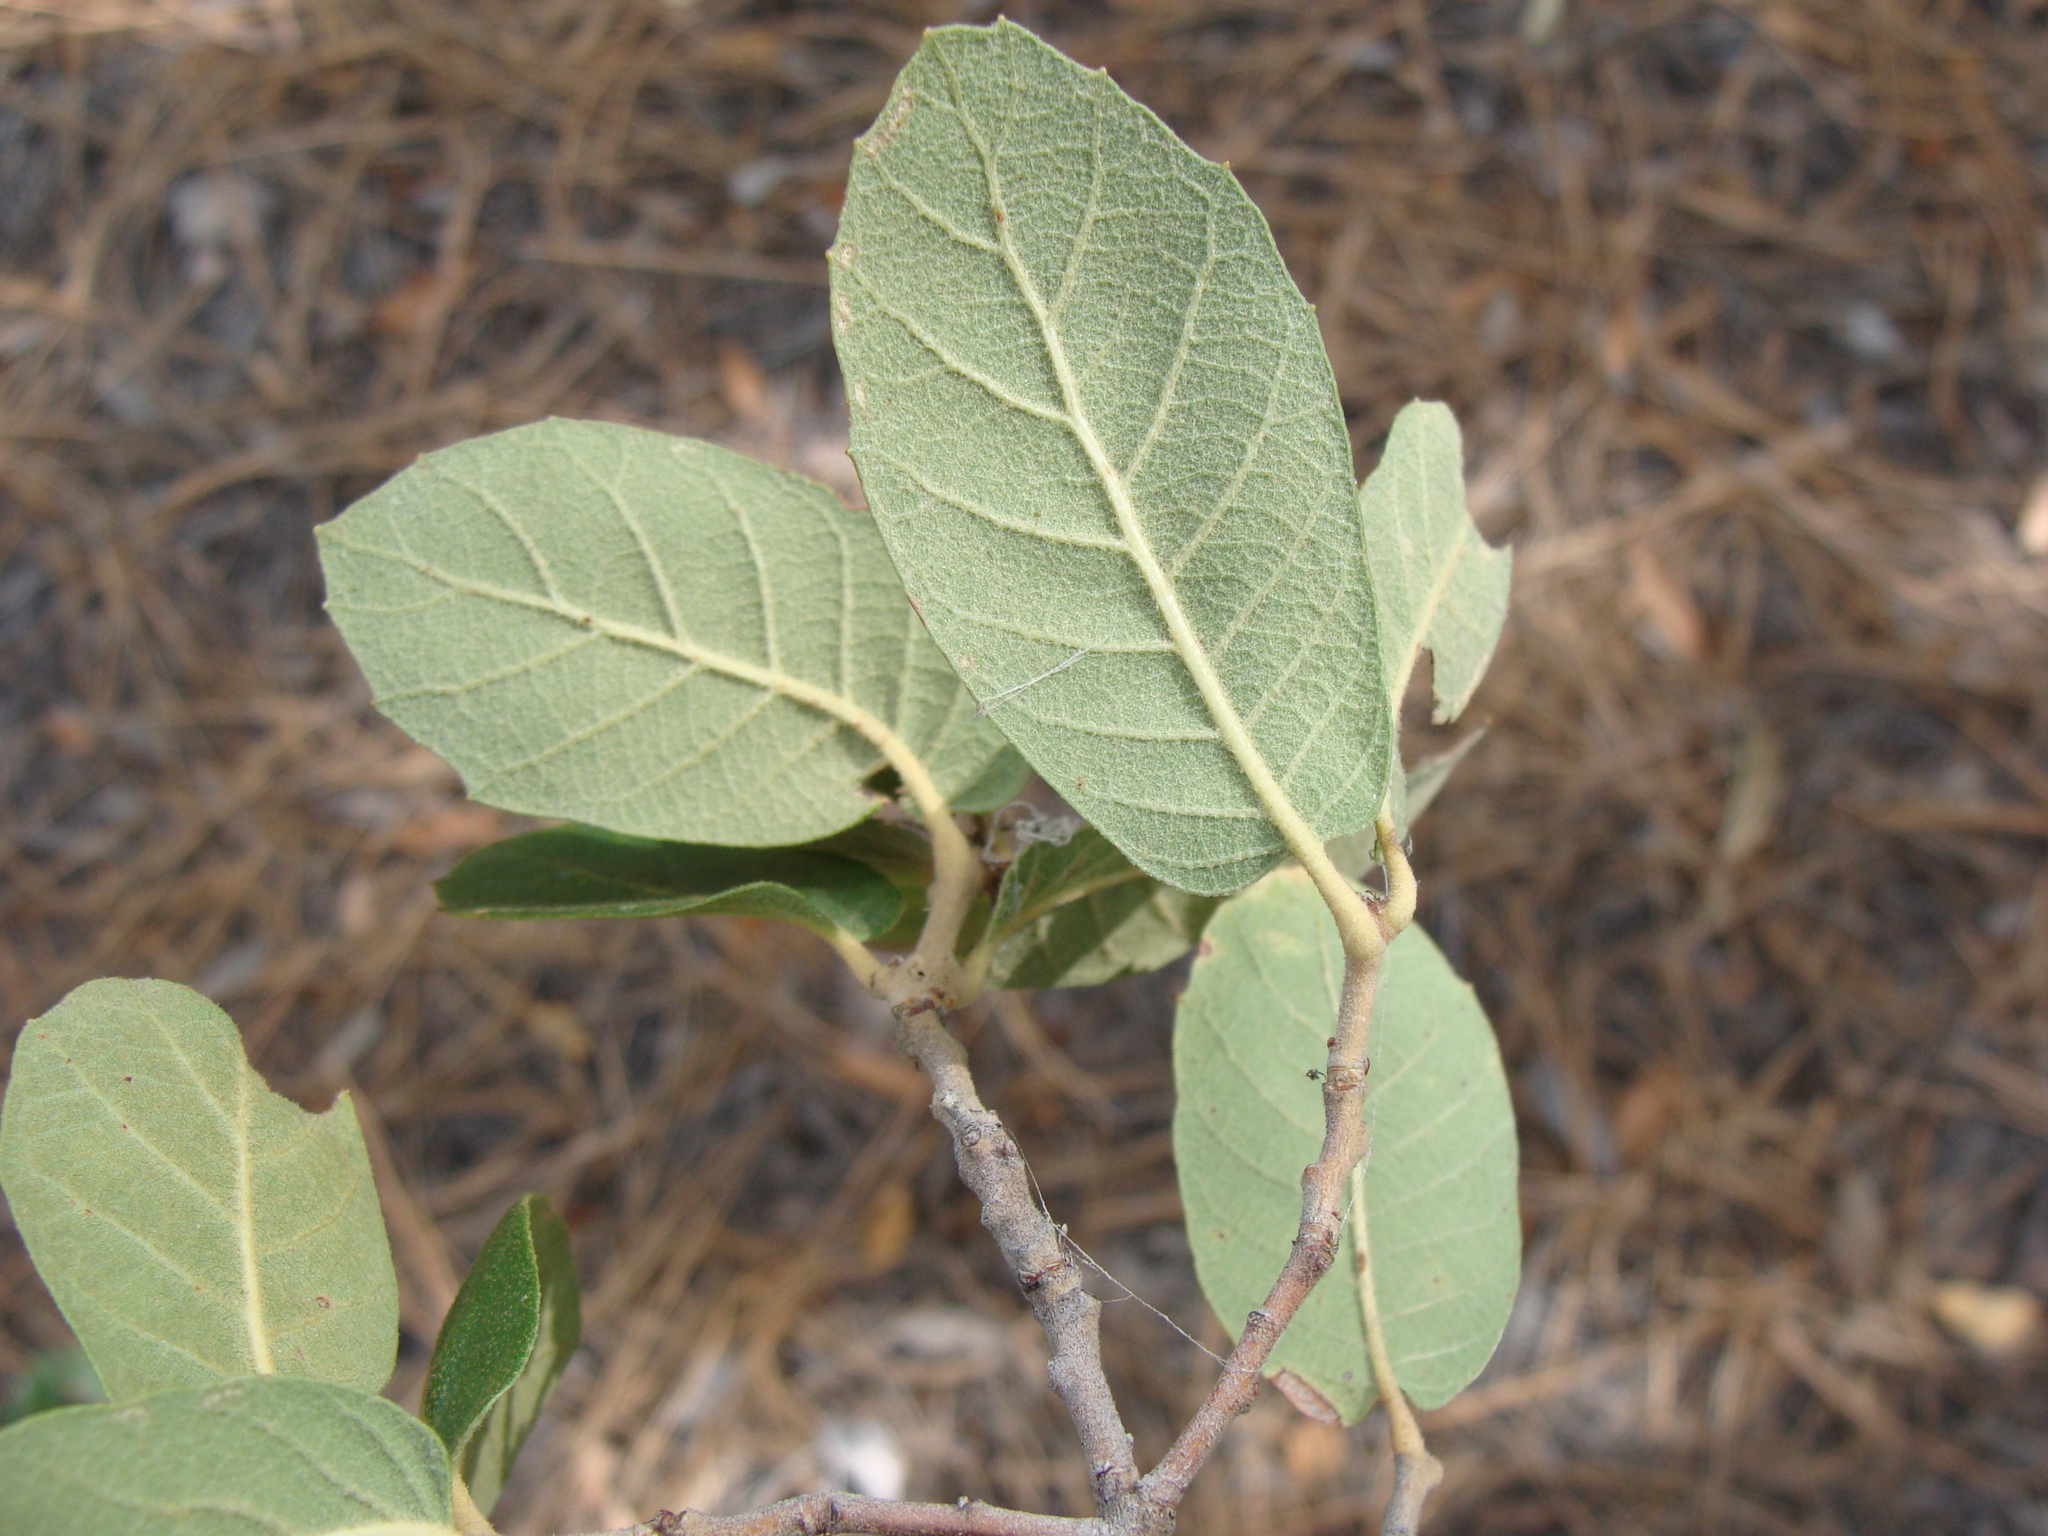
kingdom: Plantae
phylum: Tracheophyta
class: Magnoliopsida
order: Fagales
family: Fagaceae
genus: Quercus
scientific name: Quercus arizonica
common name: Arizona white oak
